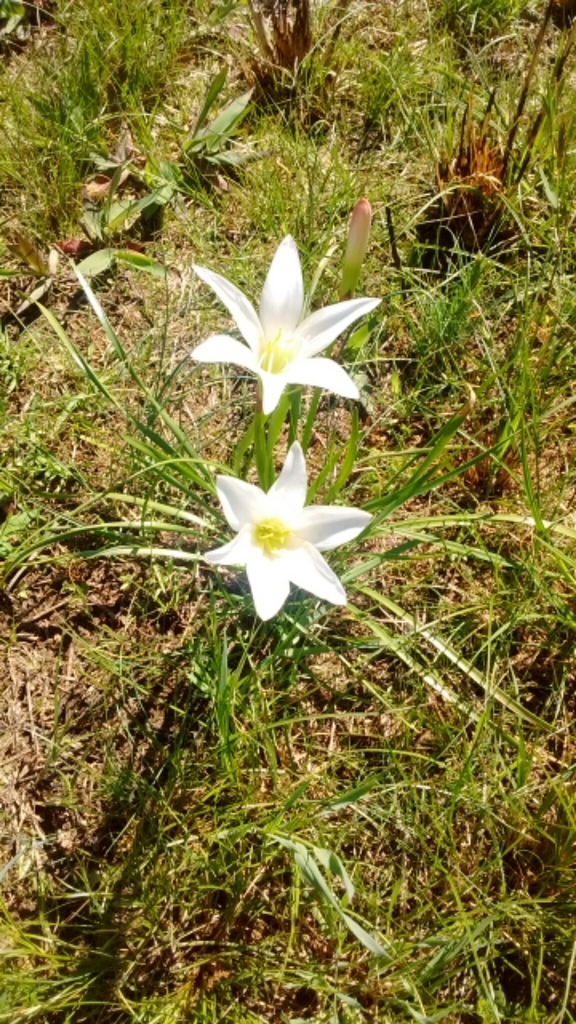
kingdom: Plantae
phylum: Tracheophyta
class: Liliopsida
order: Asparagales
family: Amaryllidaceae
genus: Zephyranthes
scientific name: Zephyranthes atamasco
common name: Atamasco lily
